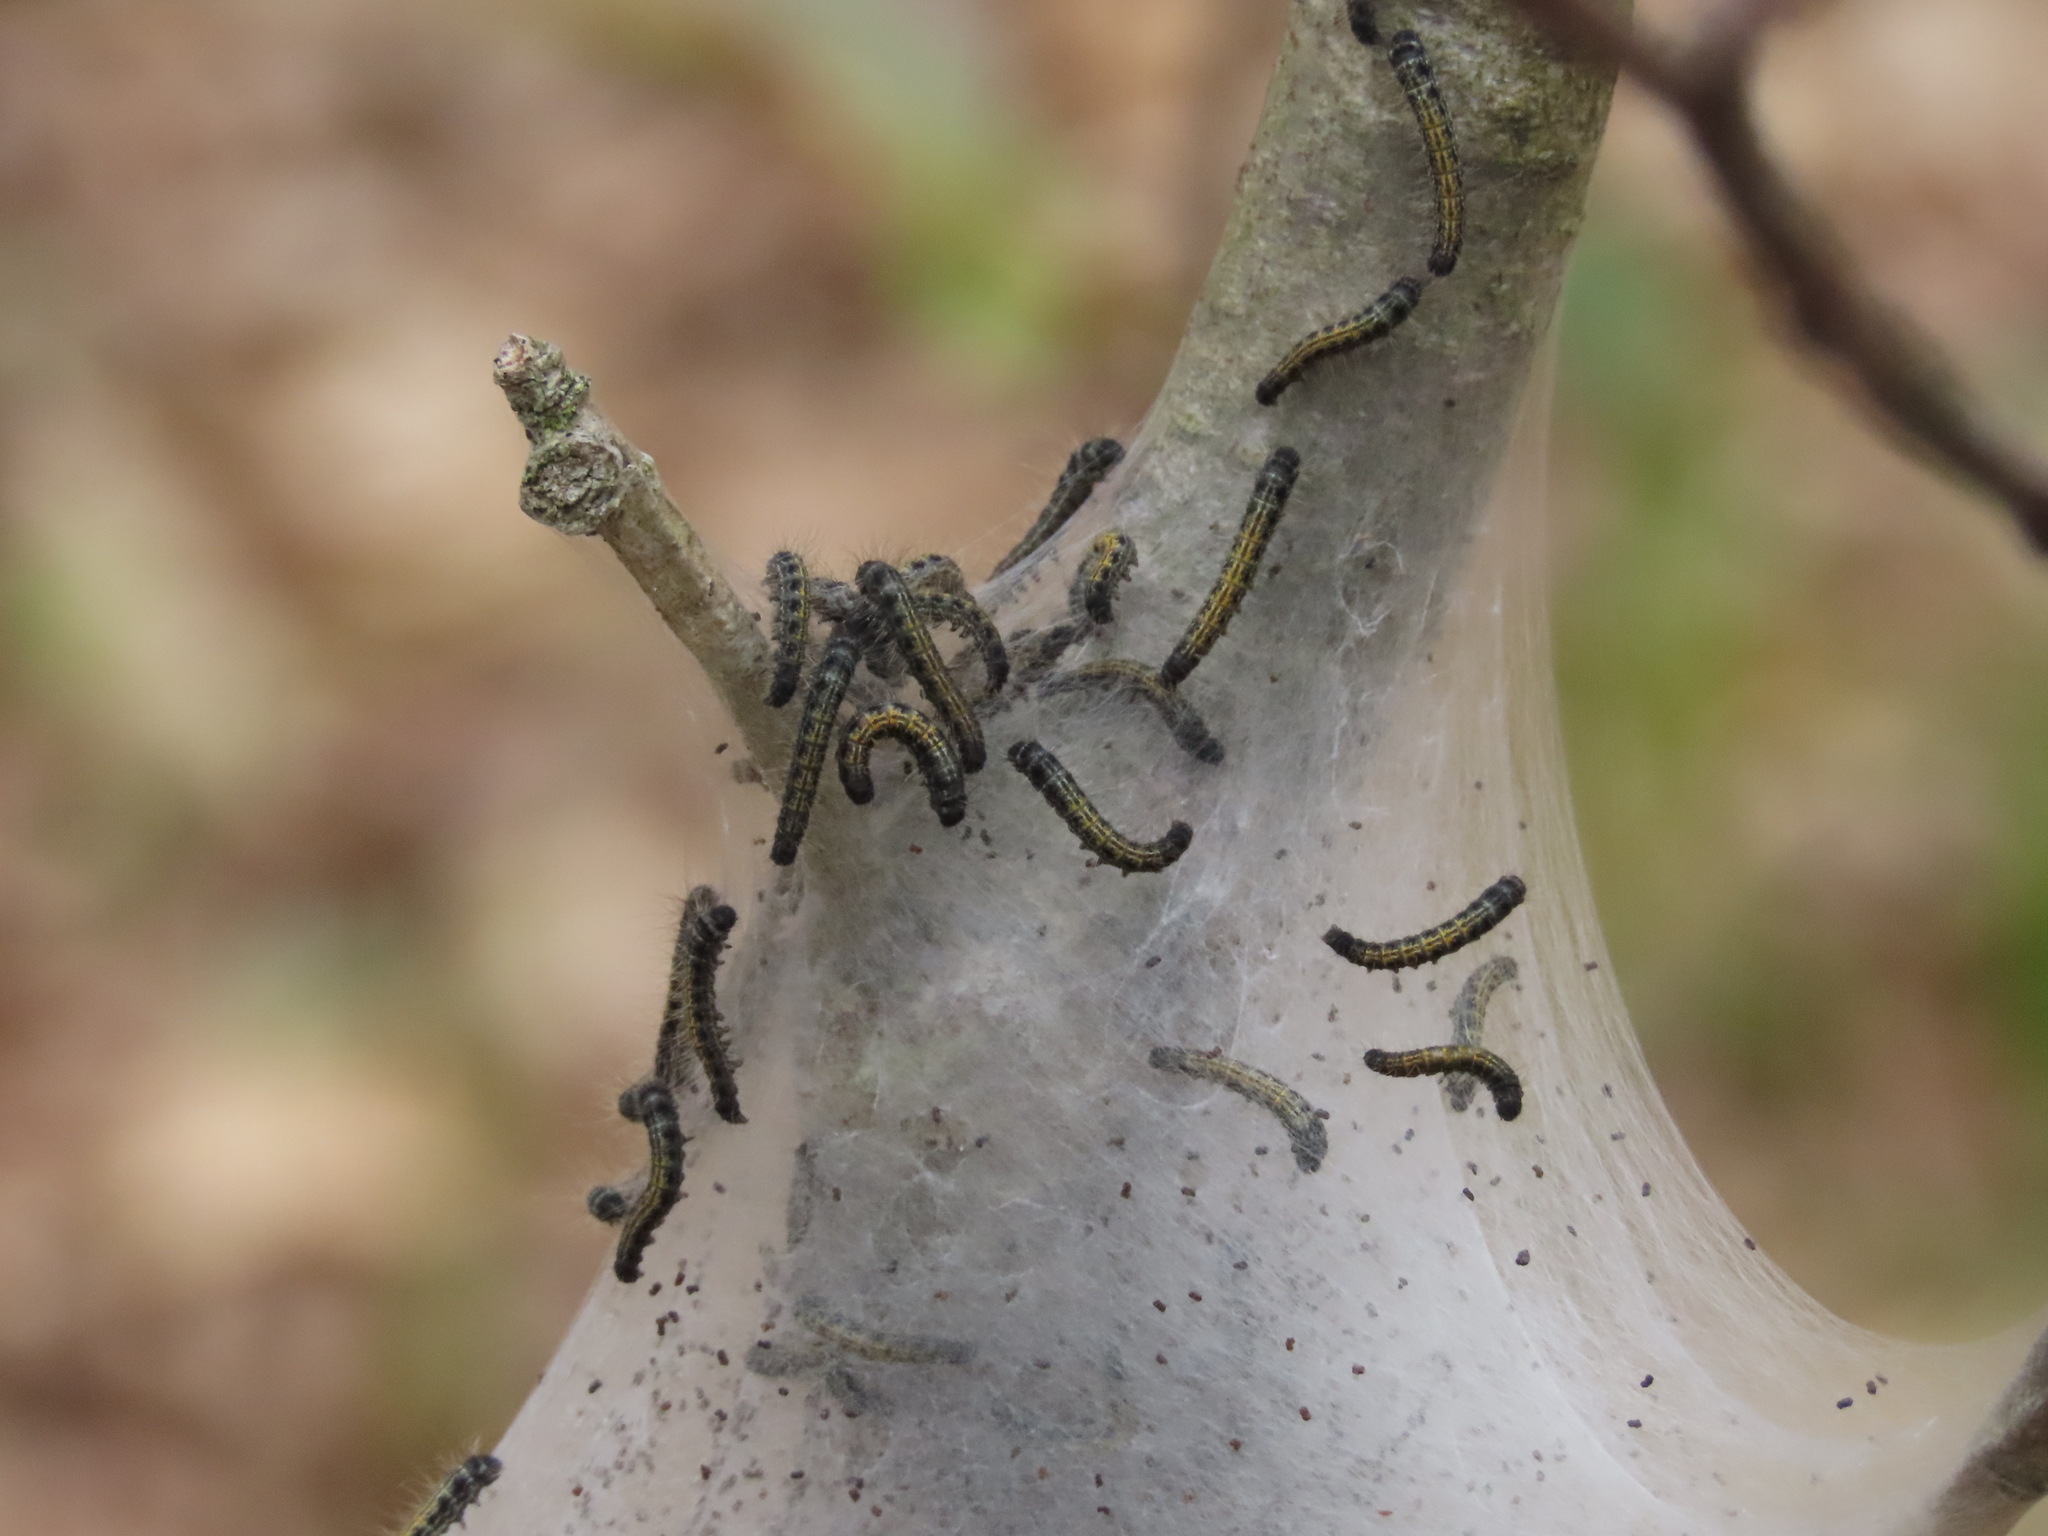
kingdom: Animalia
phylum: Arthropoda
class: Insecta
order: Lepidoptera
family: Lasiocampidae
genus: Malacosoma
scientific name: Malacosoma americana
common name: Eastern tent caterpillar moth
